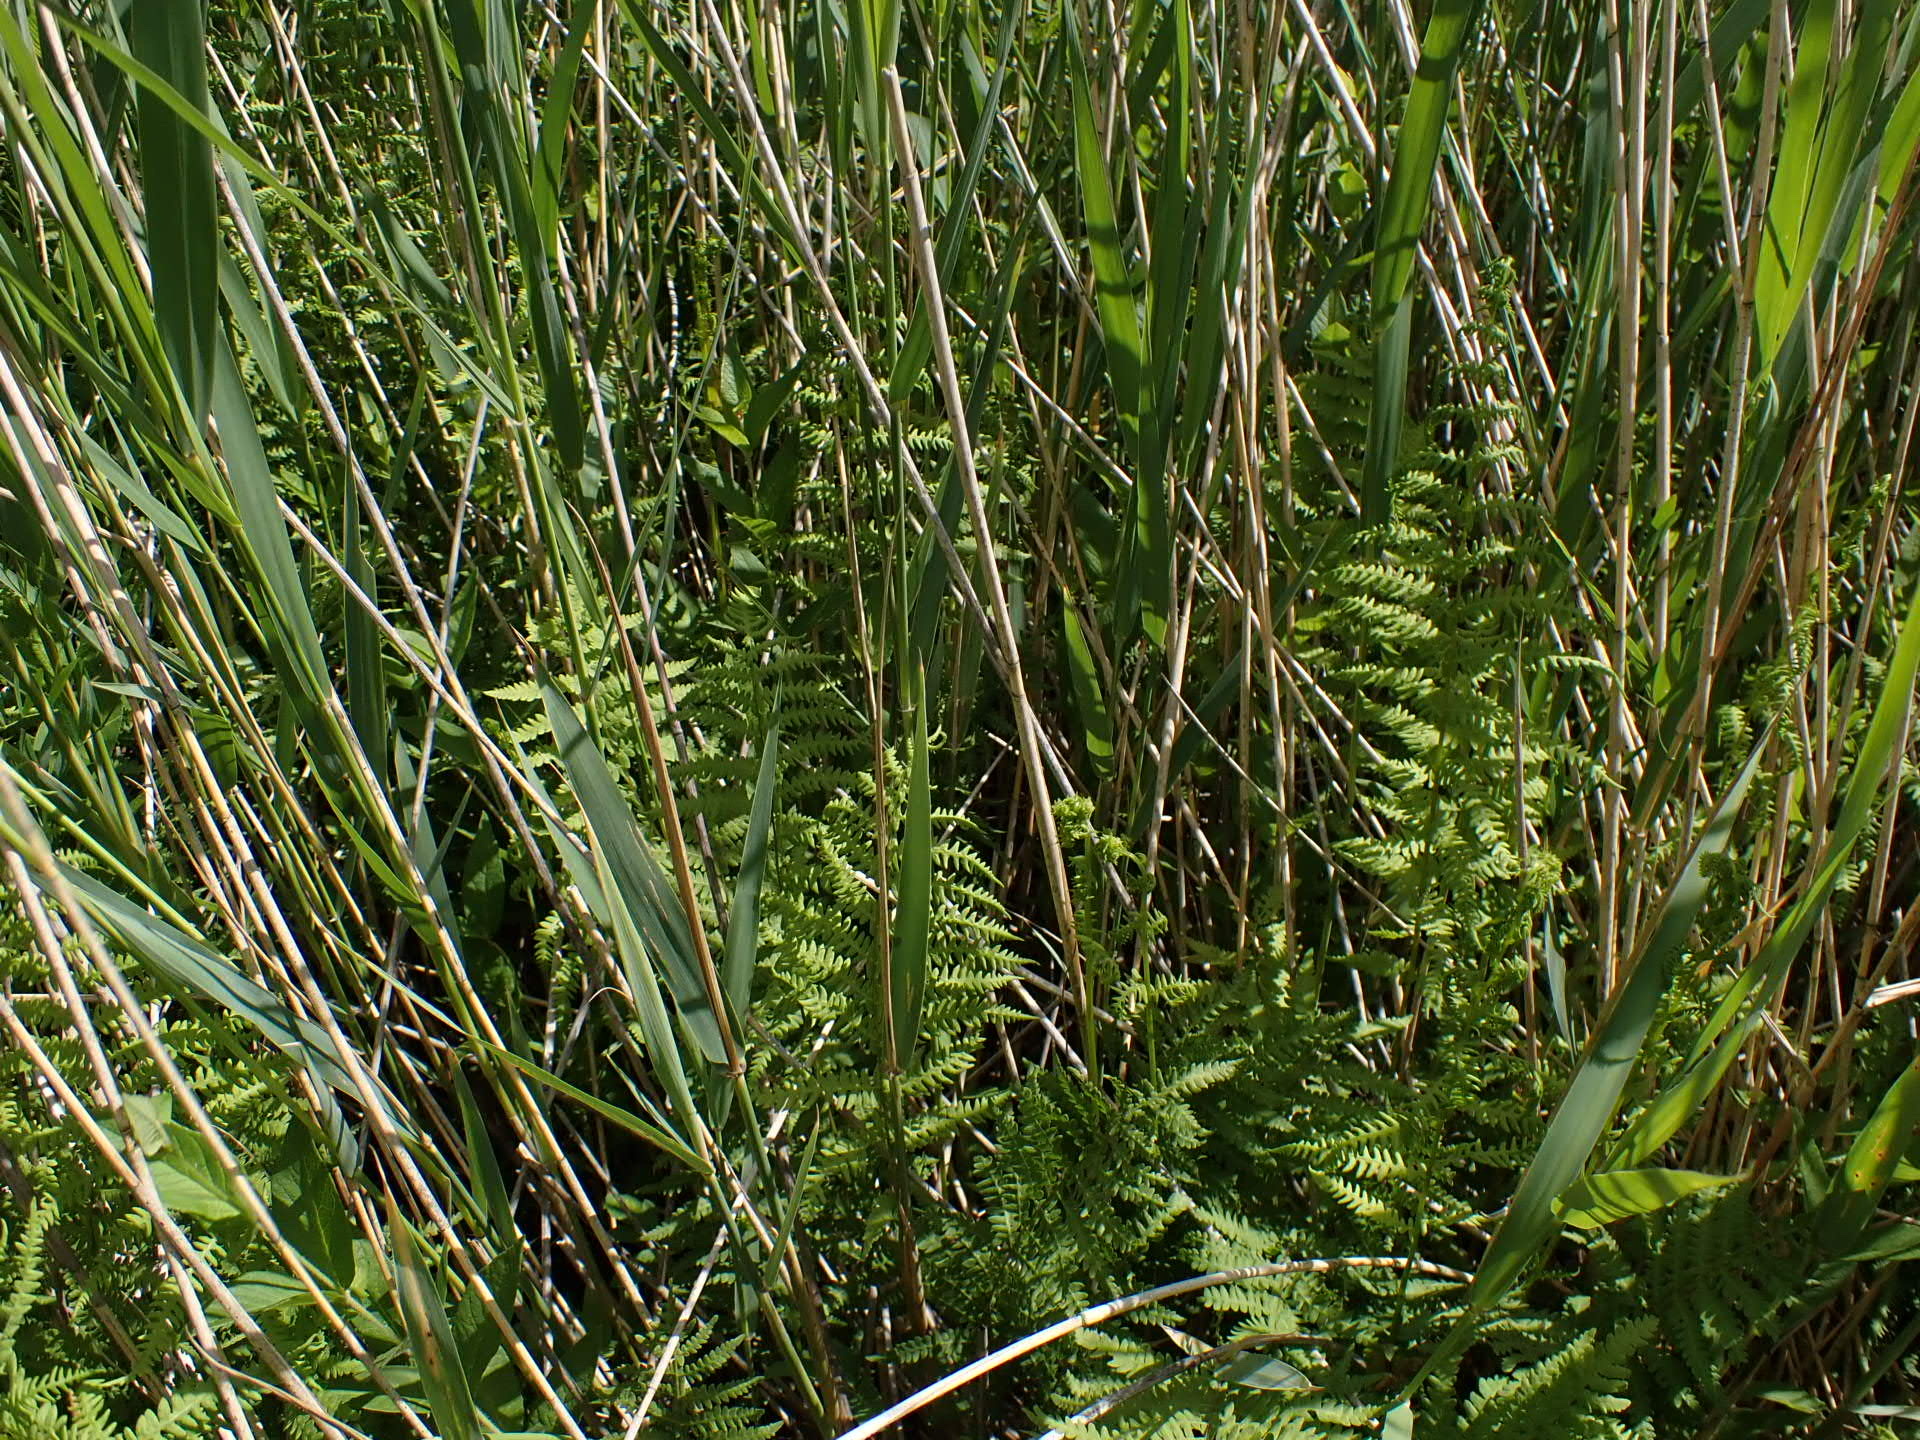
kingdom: Plantae
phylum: Tracheophyta
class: Polypodiopsida
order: Polypodiales
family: Thelypteridaceae
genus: Thelypteris
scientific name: Thelypteris palustris
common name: Marsh fern
